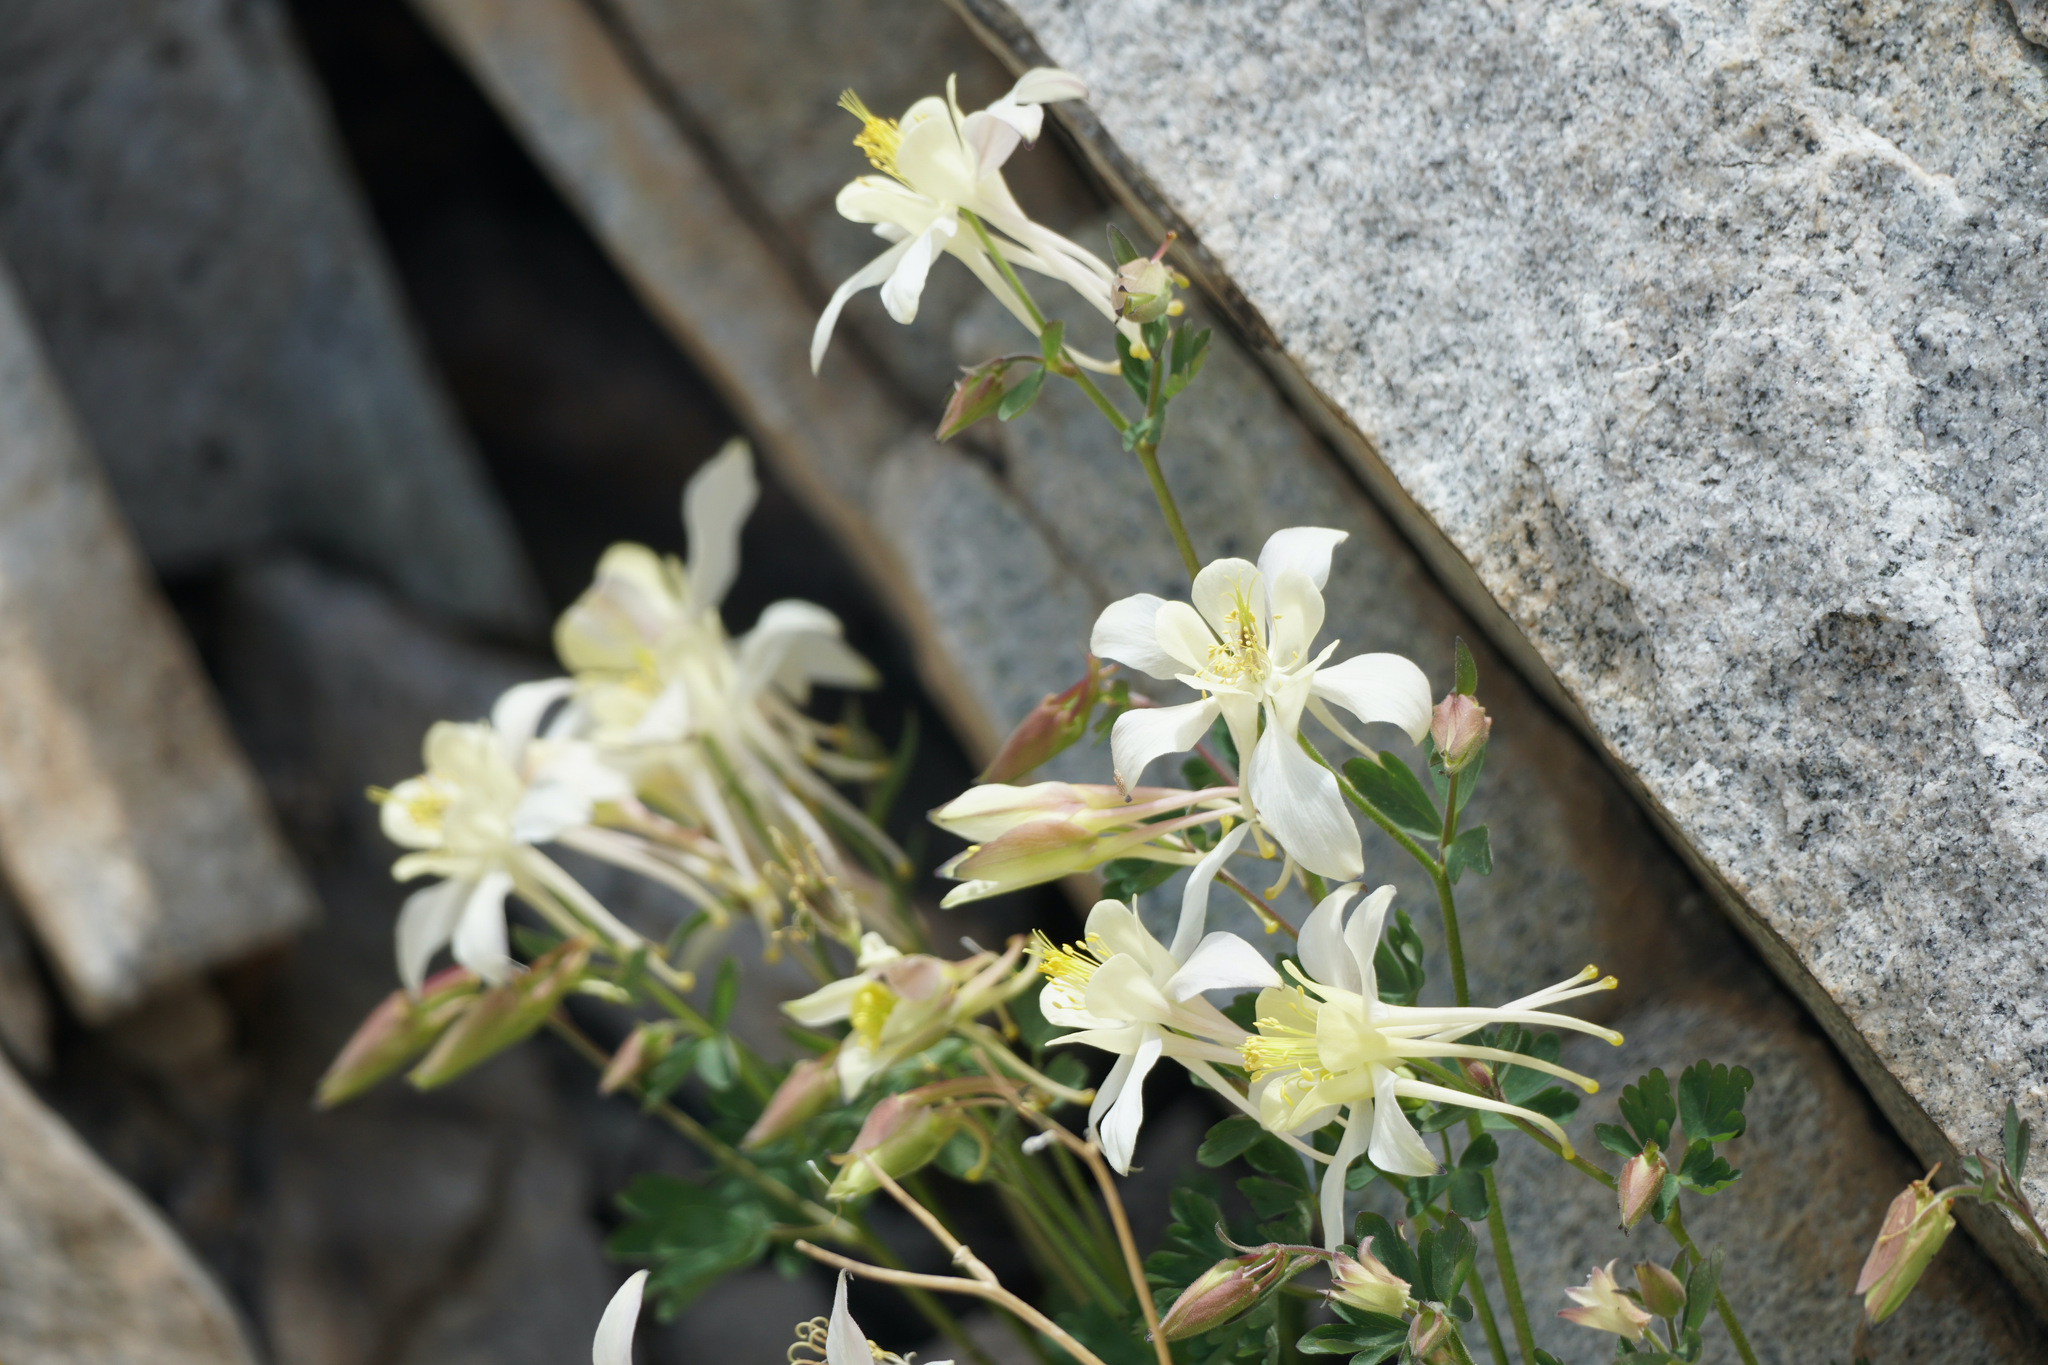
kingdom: Plantae
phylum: Tracheophyta
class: Magnoliopsida
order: Ranunculales
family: Ranunculaceae
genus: Aquilegia
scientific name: Aquilegia pubescens
